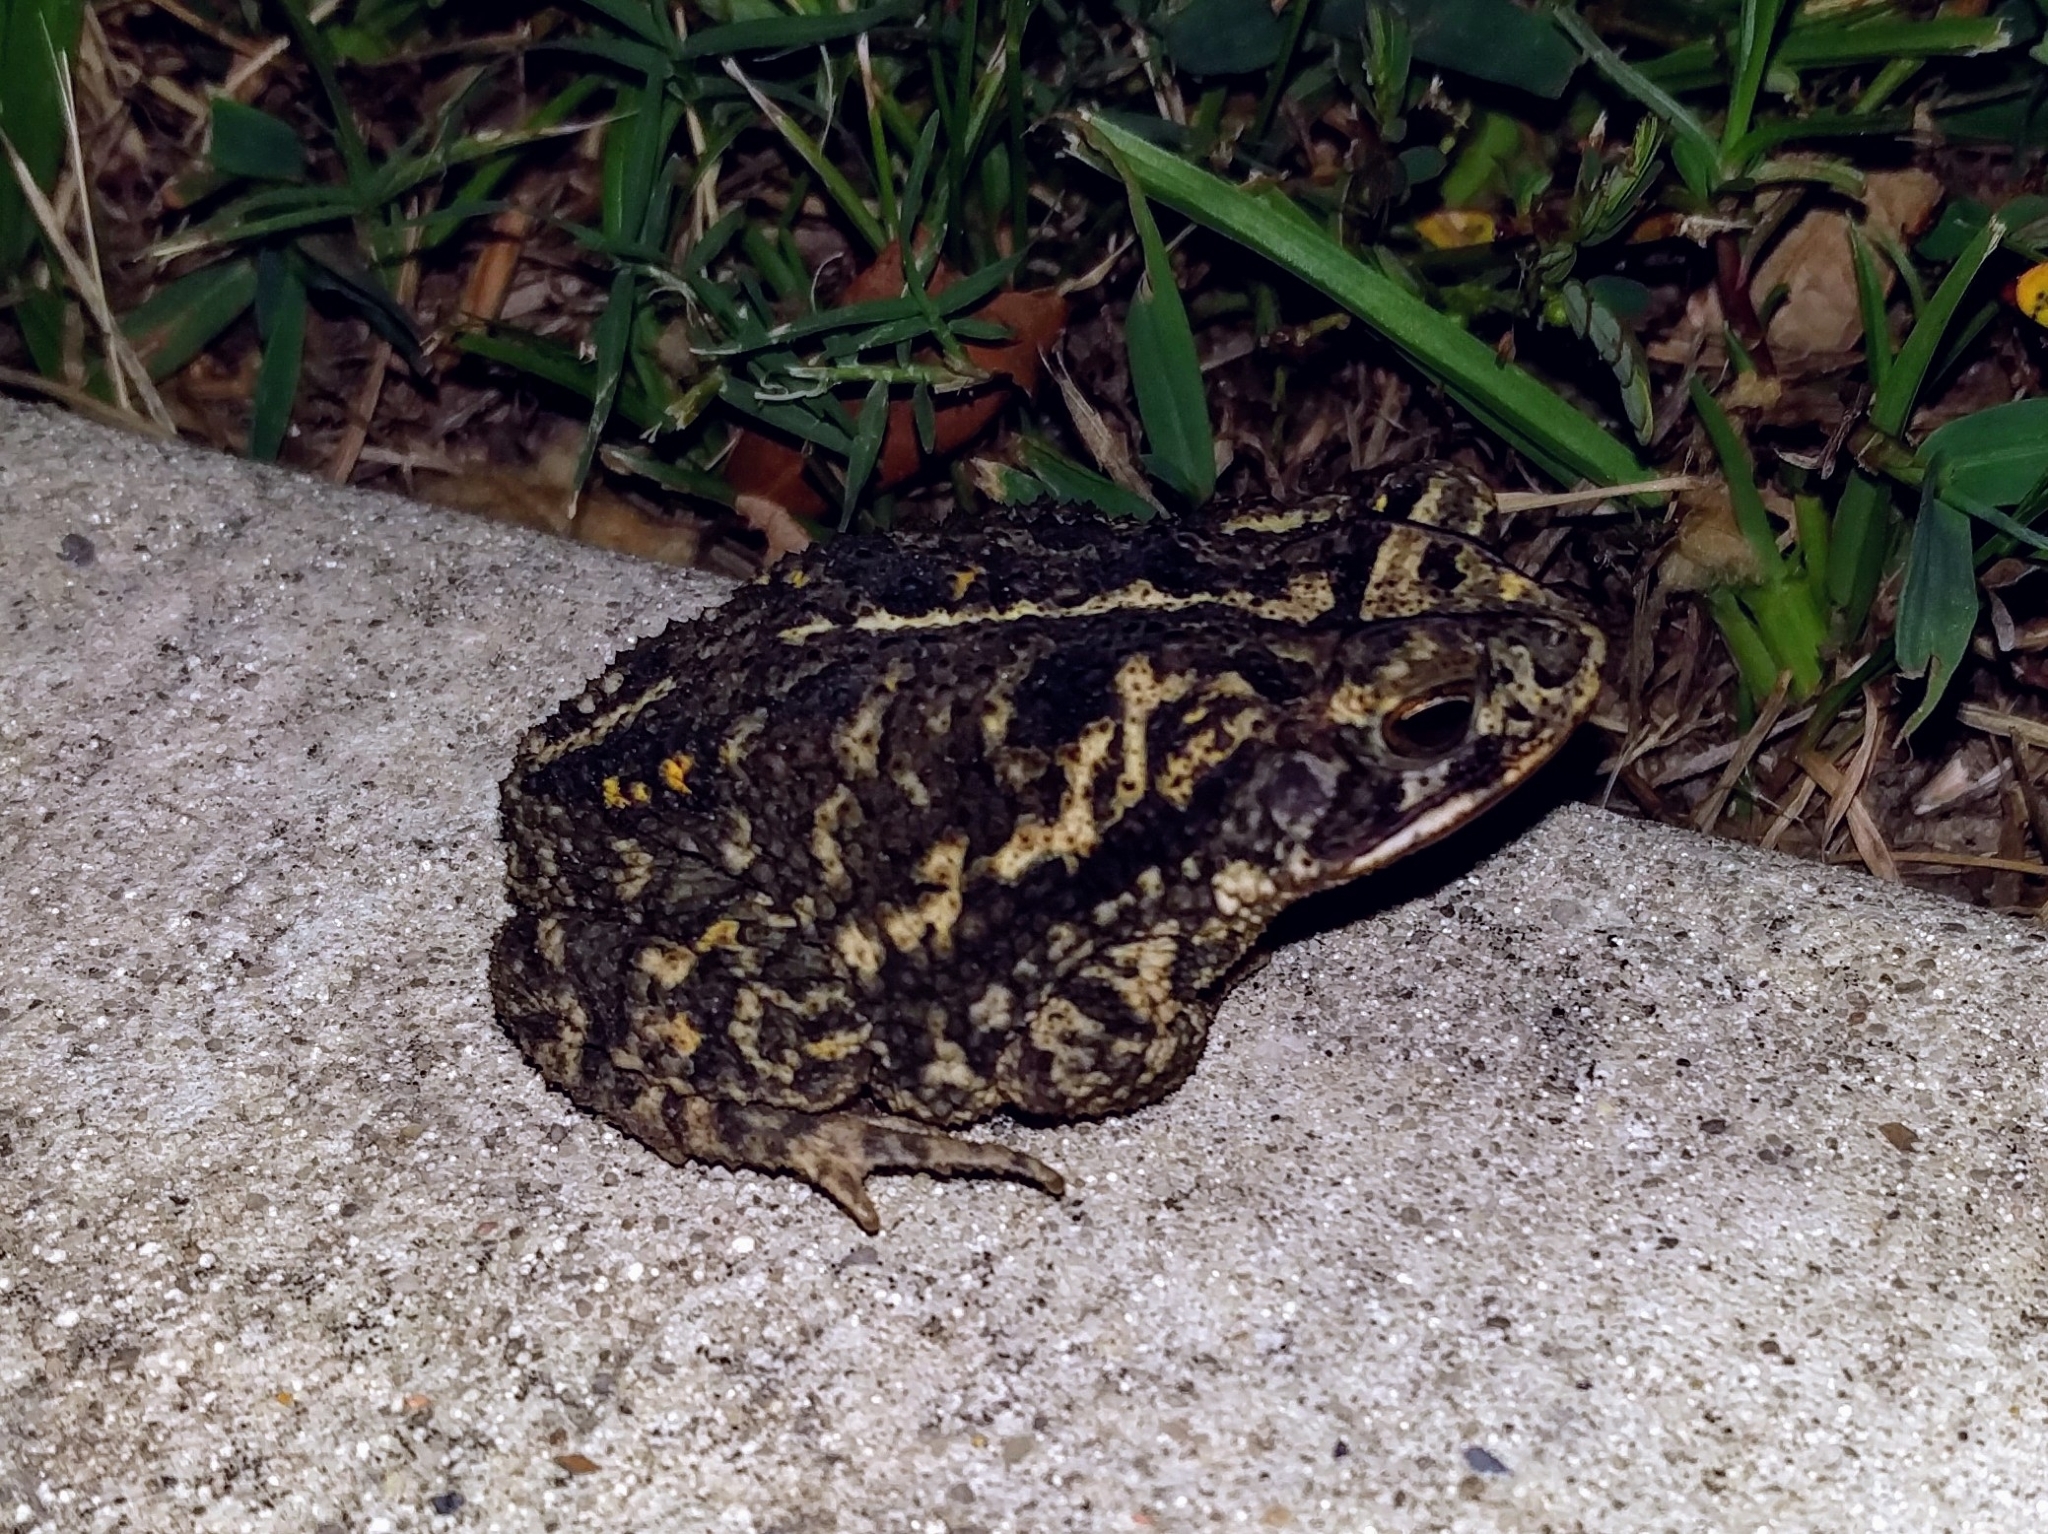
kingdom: Animalia
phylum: Chordata
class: Amphibia
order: Anura
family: Bufonidae
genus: Incilius
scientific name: Incilius nebulifer
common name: Gulf coast toad
